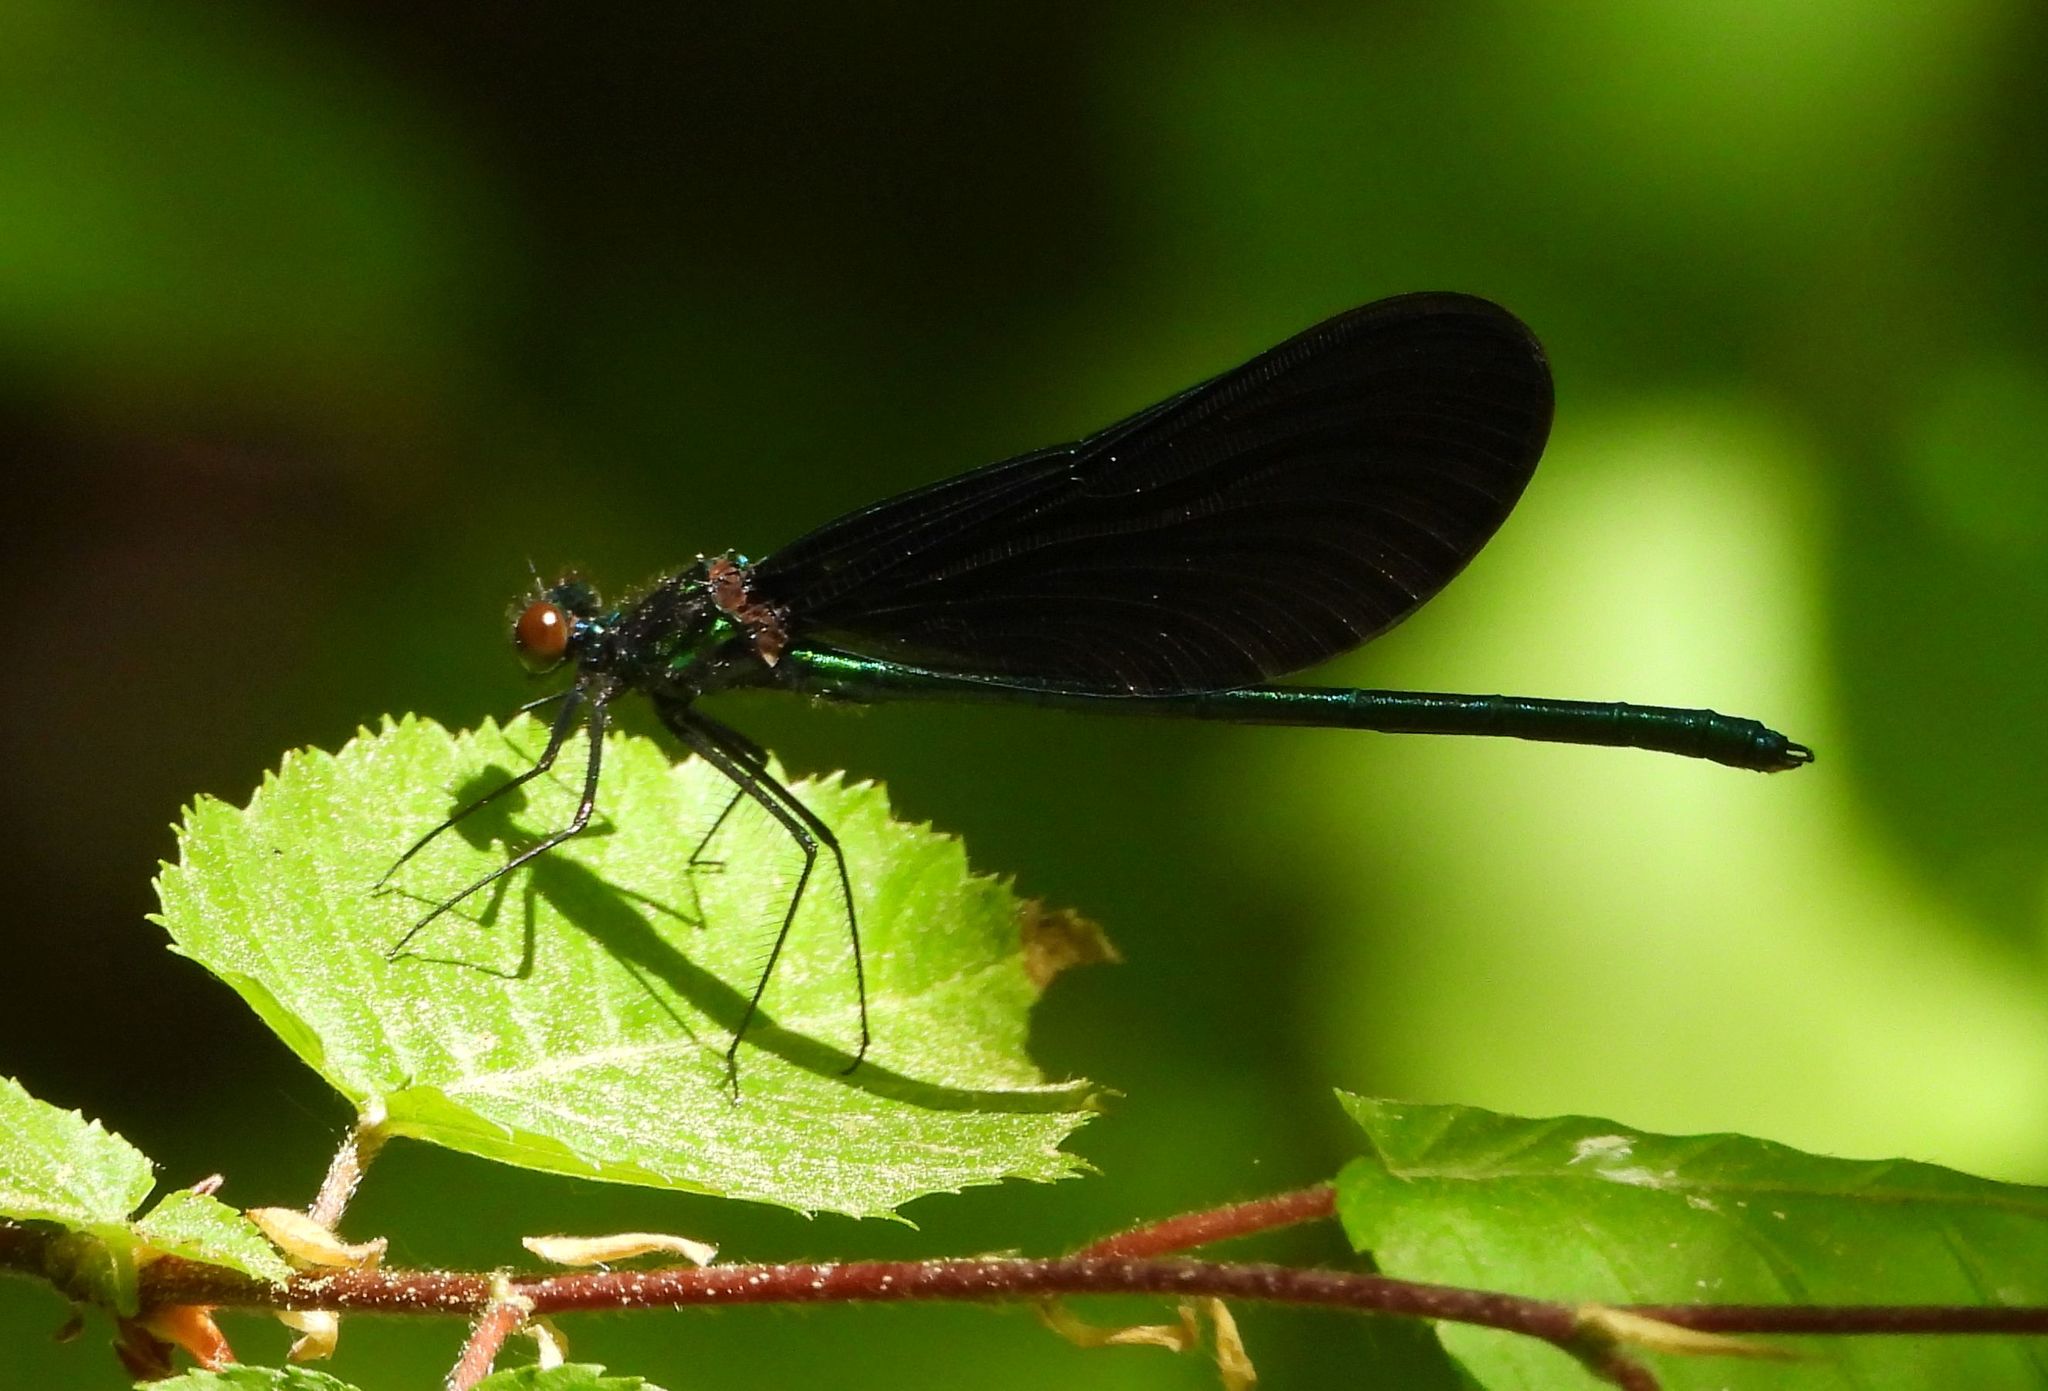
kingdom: Animalia
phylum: Arthropoda
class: Insecta
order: Odonata
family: Calopterygidae
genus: Calopteryx
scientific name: Calopteryx maculata
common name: Ebony jewelwing
